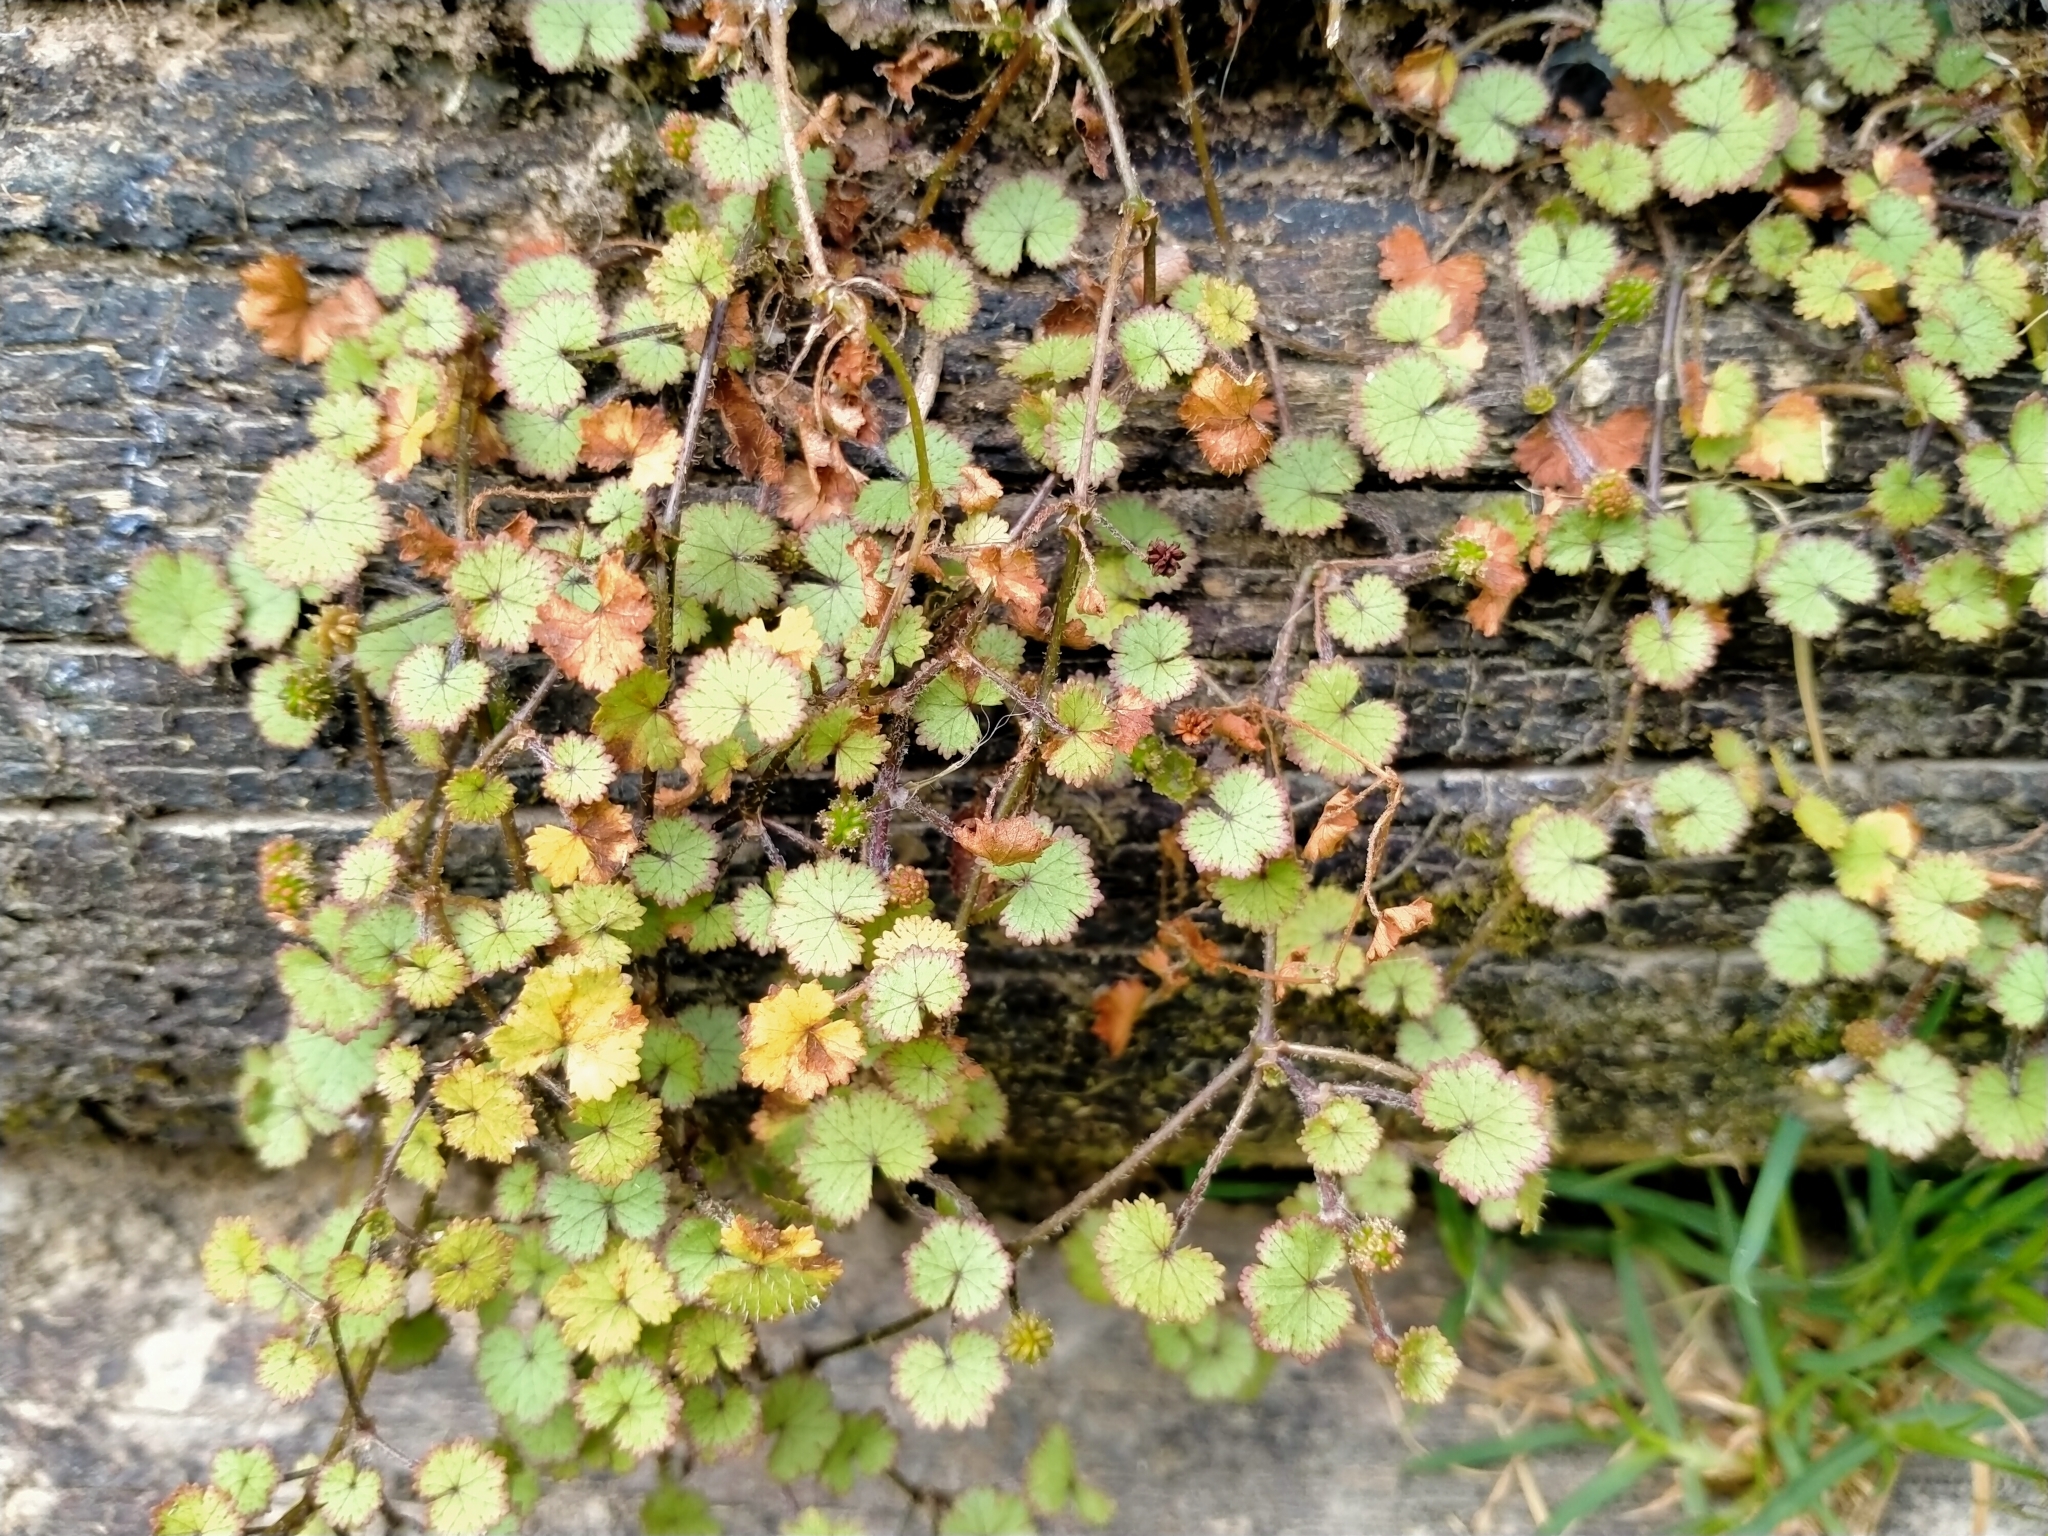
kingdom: Plantae
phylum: Tracheophyta
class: Magnoliopsida
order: Apiales
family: Araliaceae
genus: Hydrocotyle
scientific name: Hydrocotyle moschata
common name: Hairy pennywort
